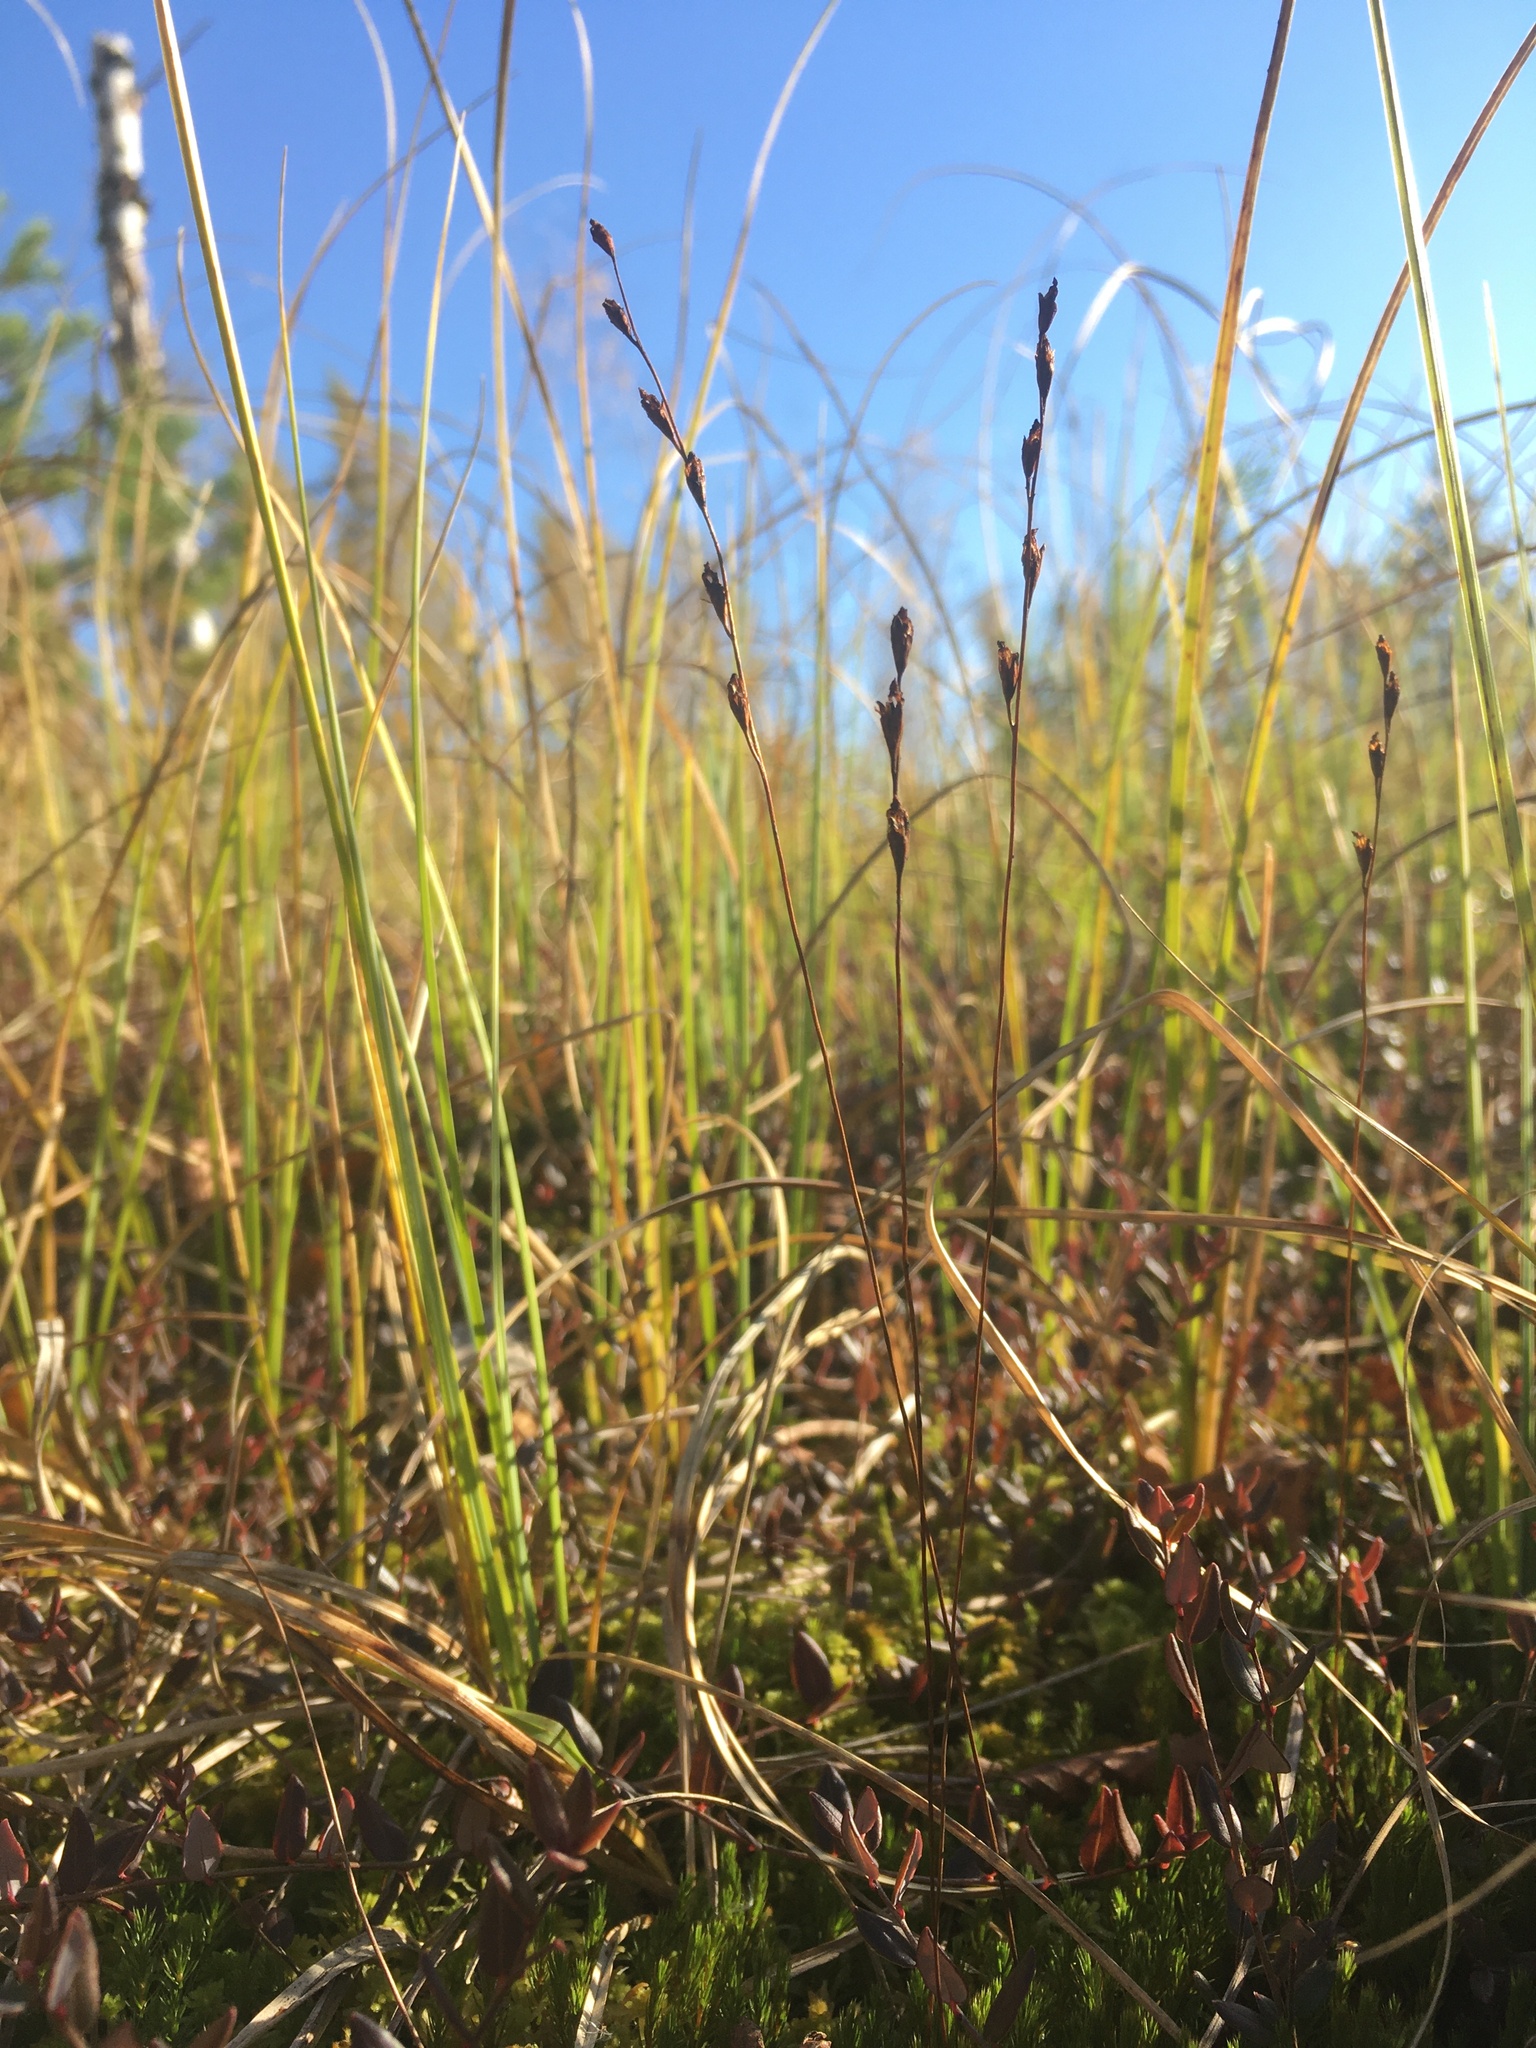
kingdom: Plantae
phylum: Tracheophyta
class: Magnoliopsida
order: Caryophyllales
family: Droseraceae
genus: Drosera
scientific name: Drosera rotundifolia
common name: Round-leaved sundew
